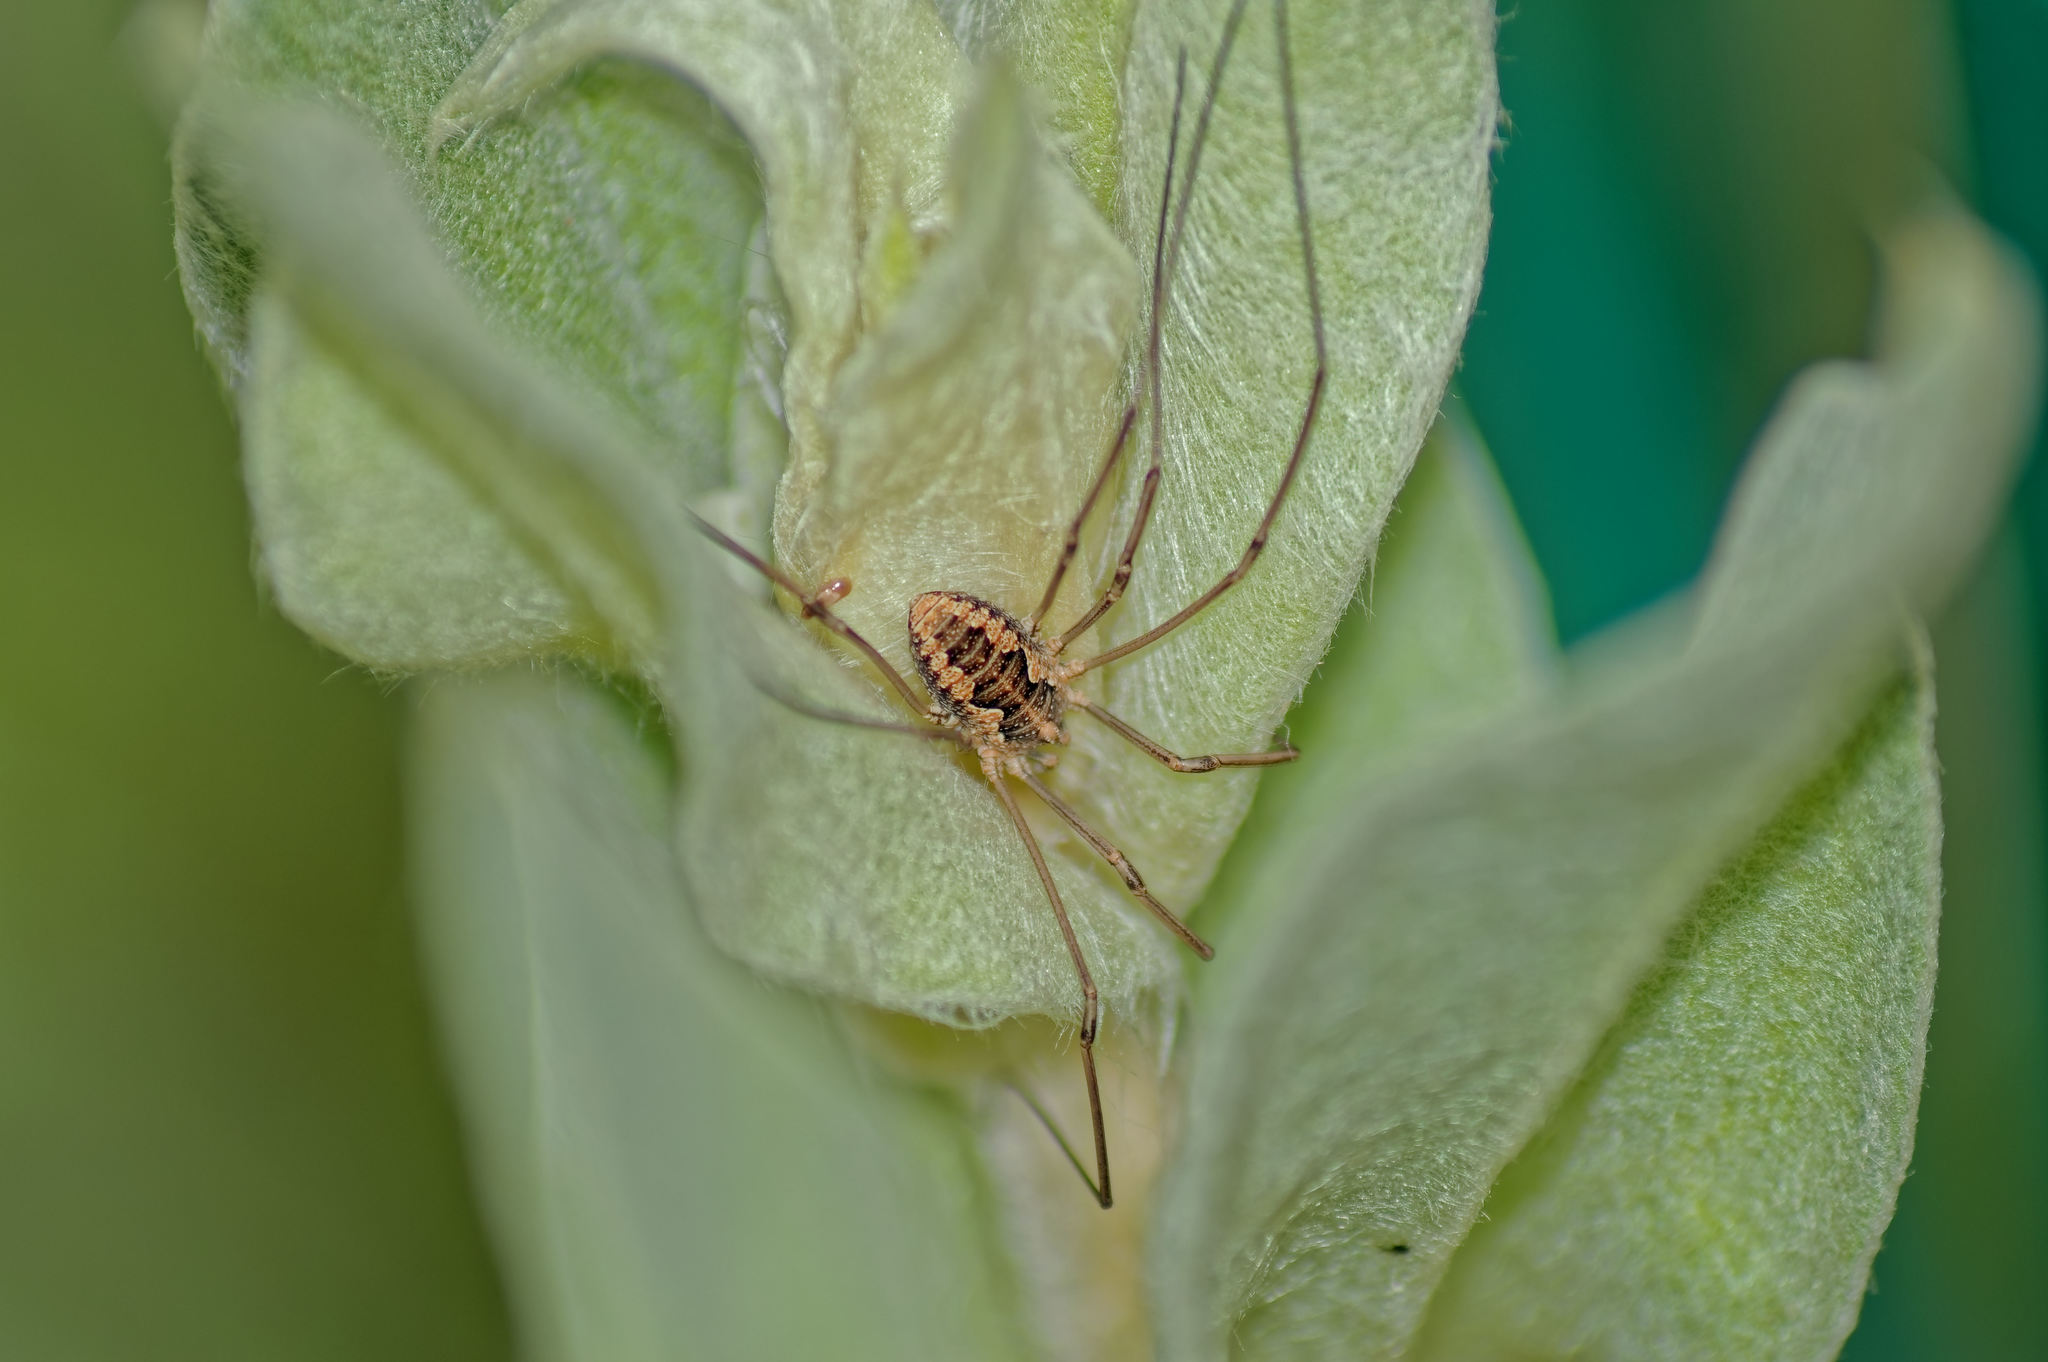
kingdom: Animalia
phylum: Arthropoda
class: Arachnida
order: Opiliones
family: Phalangiidae
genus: Phalangium
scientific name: Phalangium opilio
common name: Daddy longleg
